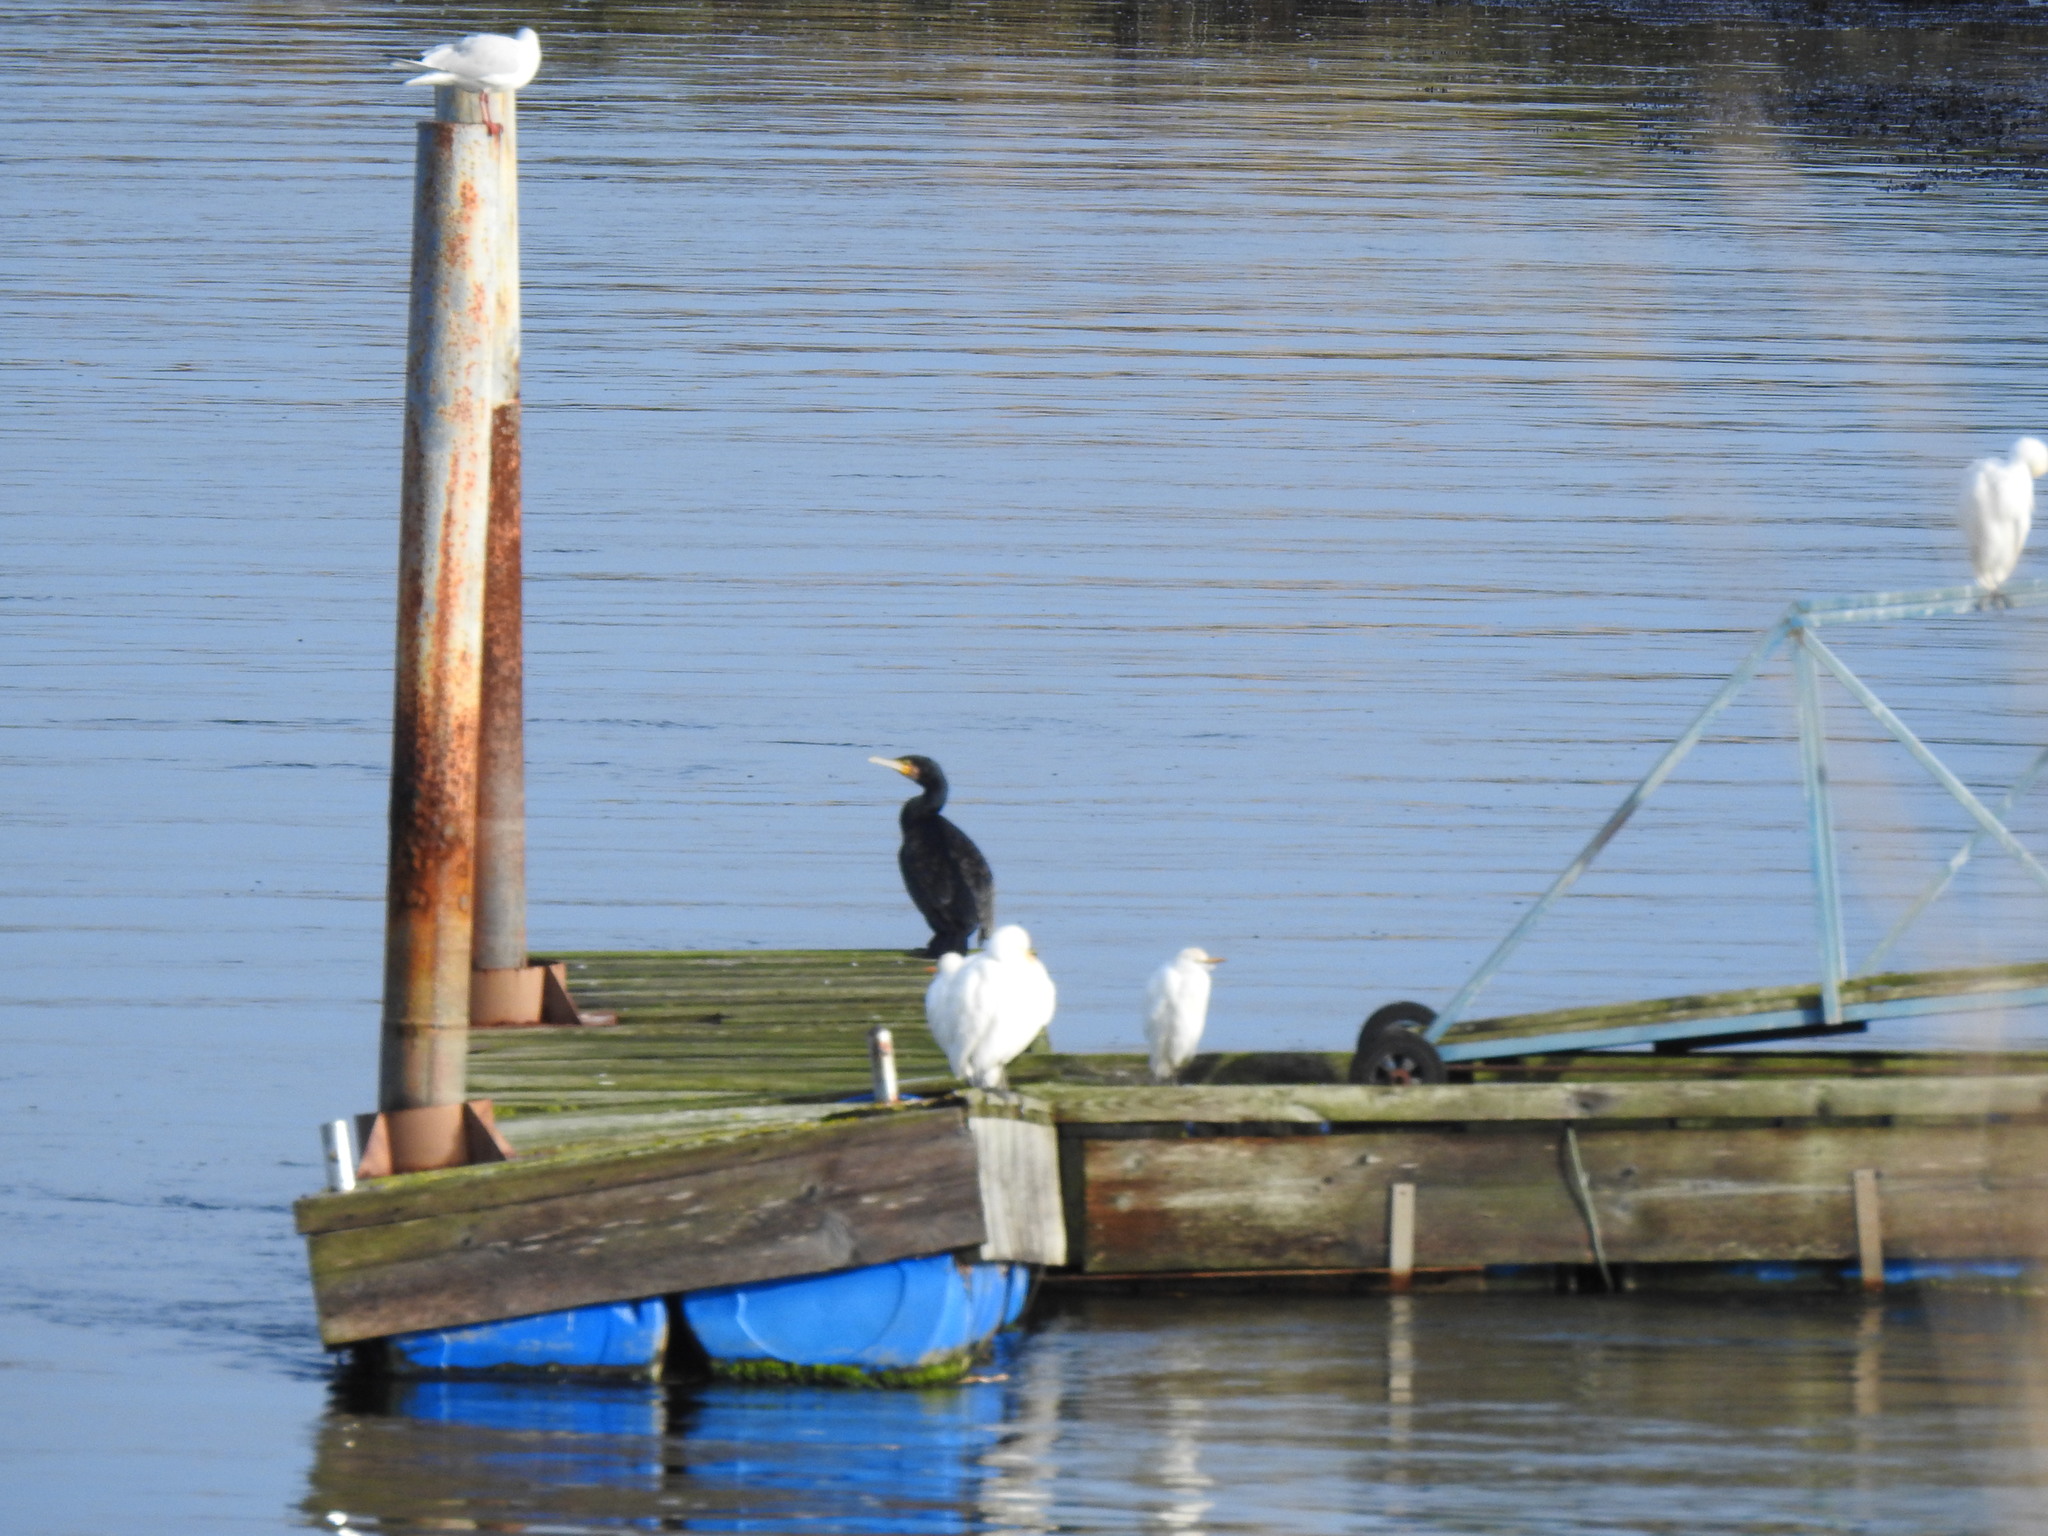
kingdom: Animalia
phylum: Chordata
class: Aves
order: Pelecaniformes
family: Ardeidae
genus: Bubulcus
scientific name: Bubulcus ibis
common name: Cattle egret
